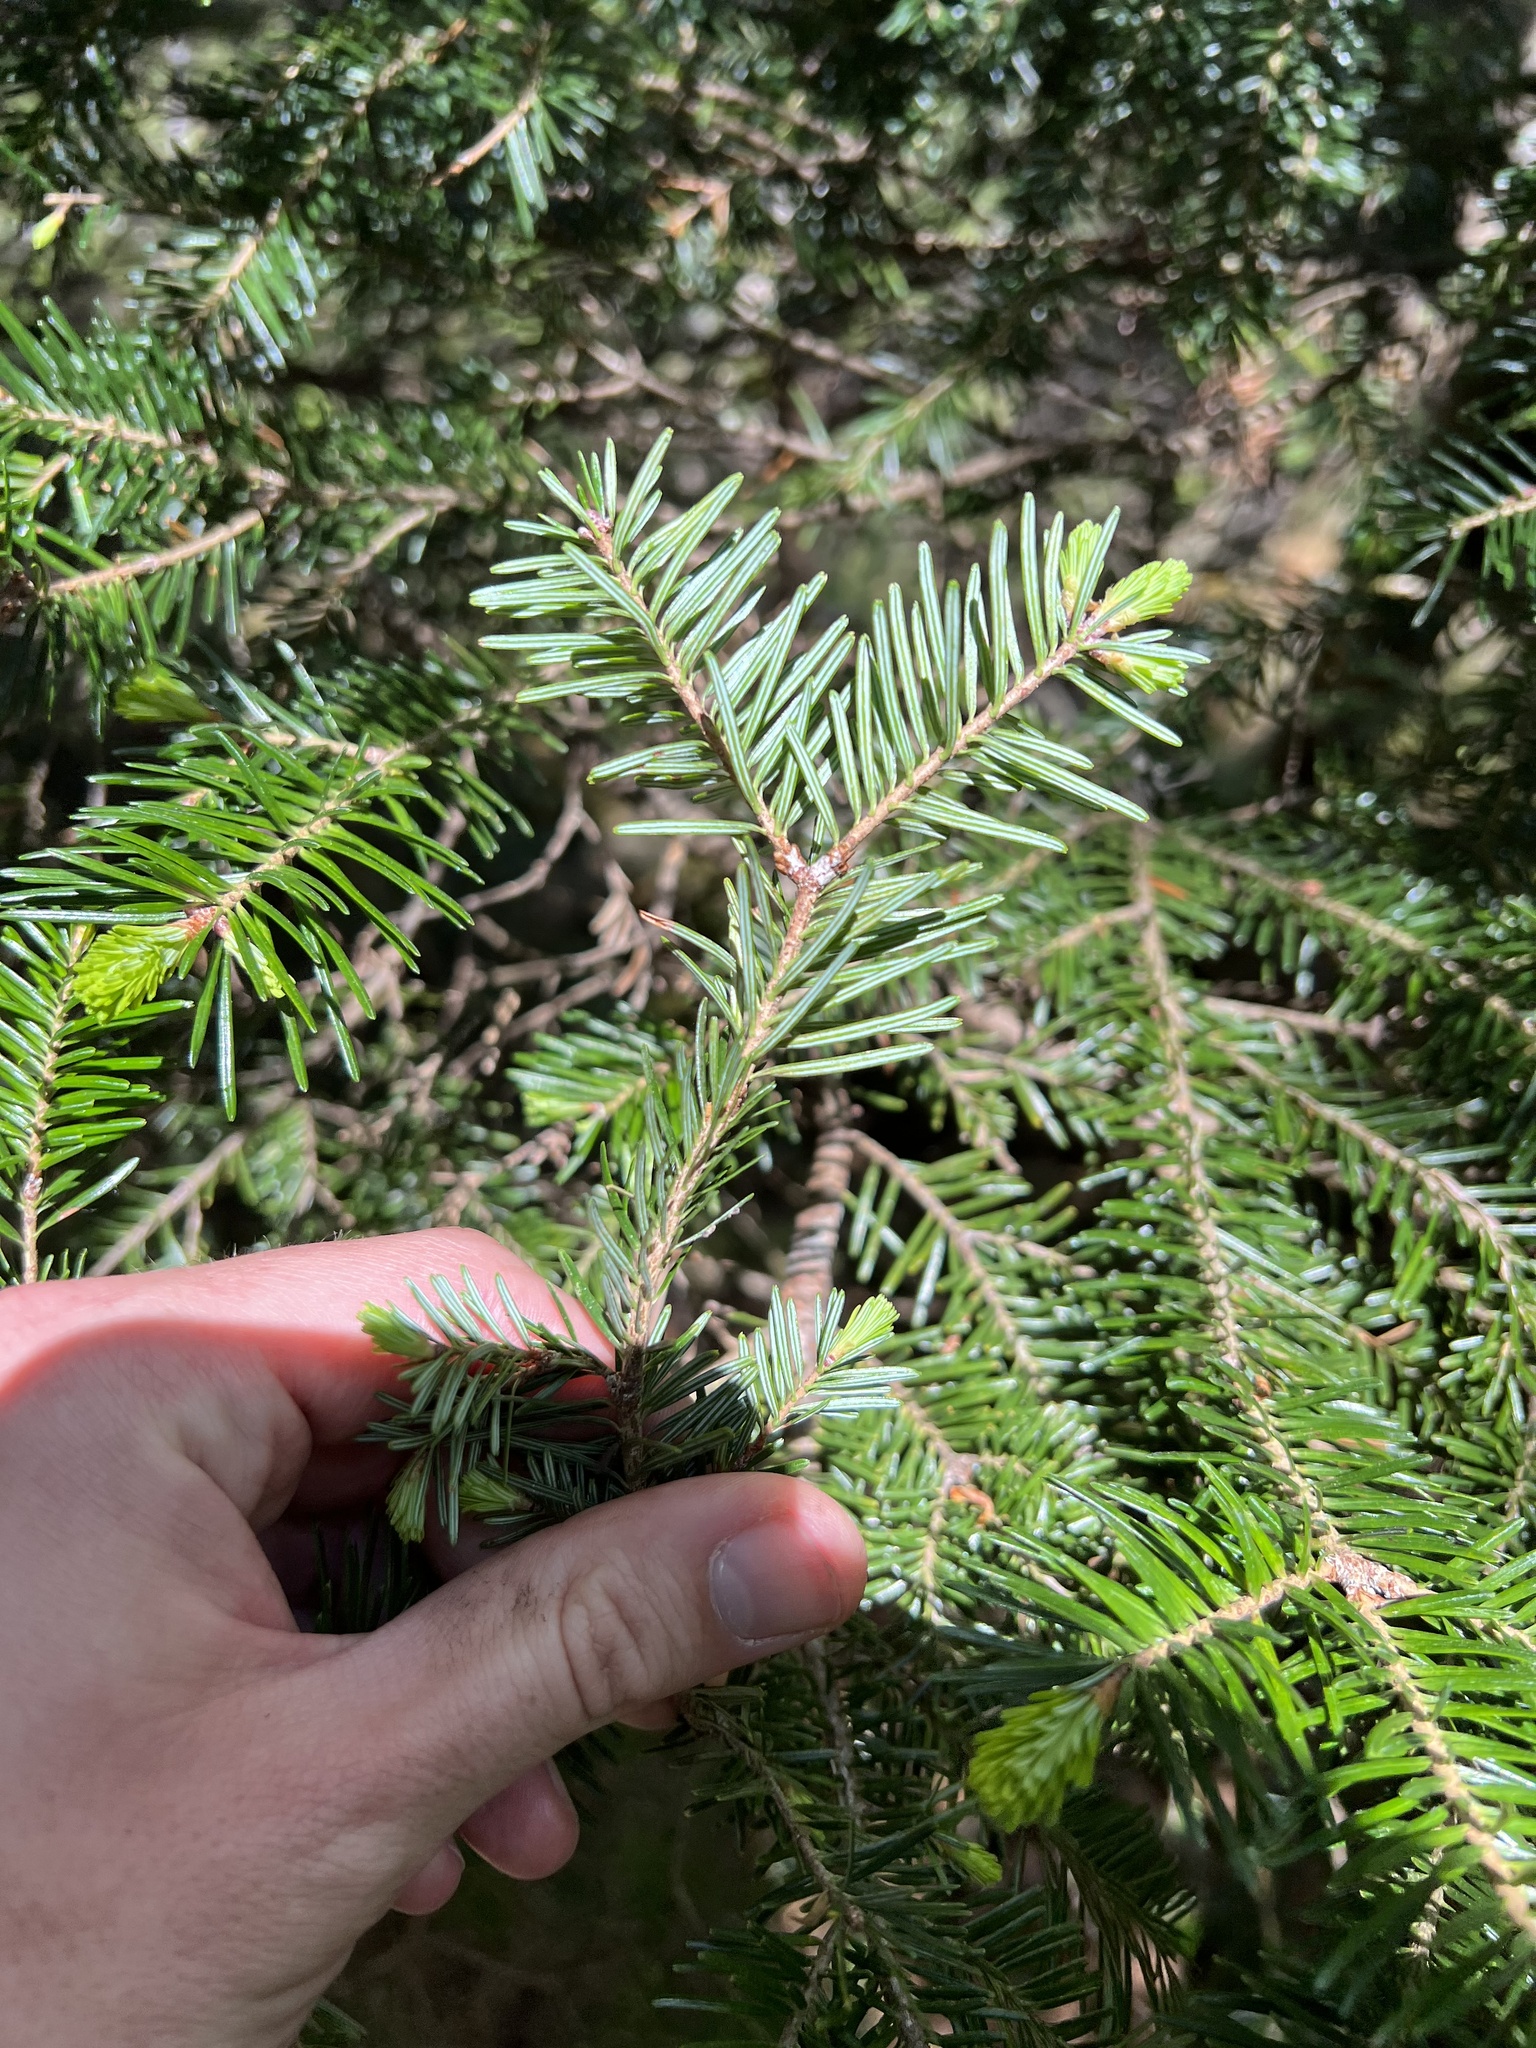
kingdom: Plantae
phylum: Tracheophyta
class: Pinopsida
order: Pinales
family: Pinaceae
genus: Abies
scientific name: Abies balsamea
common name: Balsam fir
